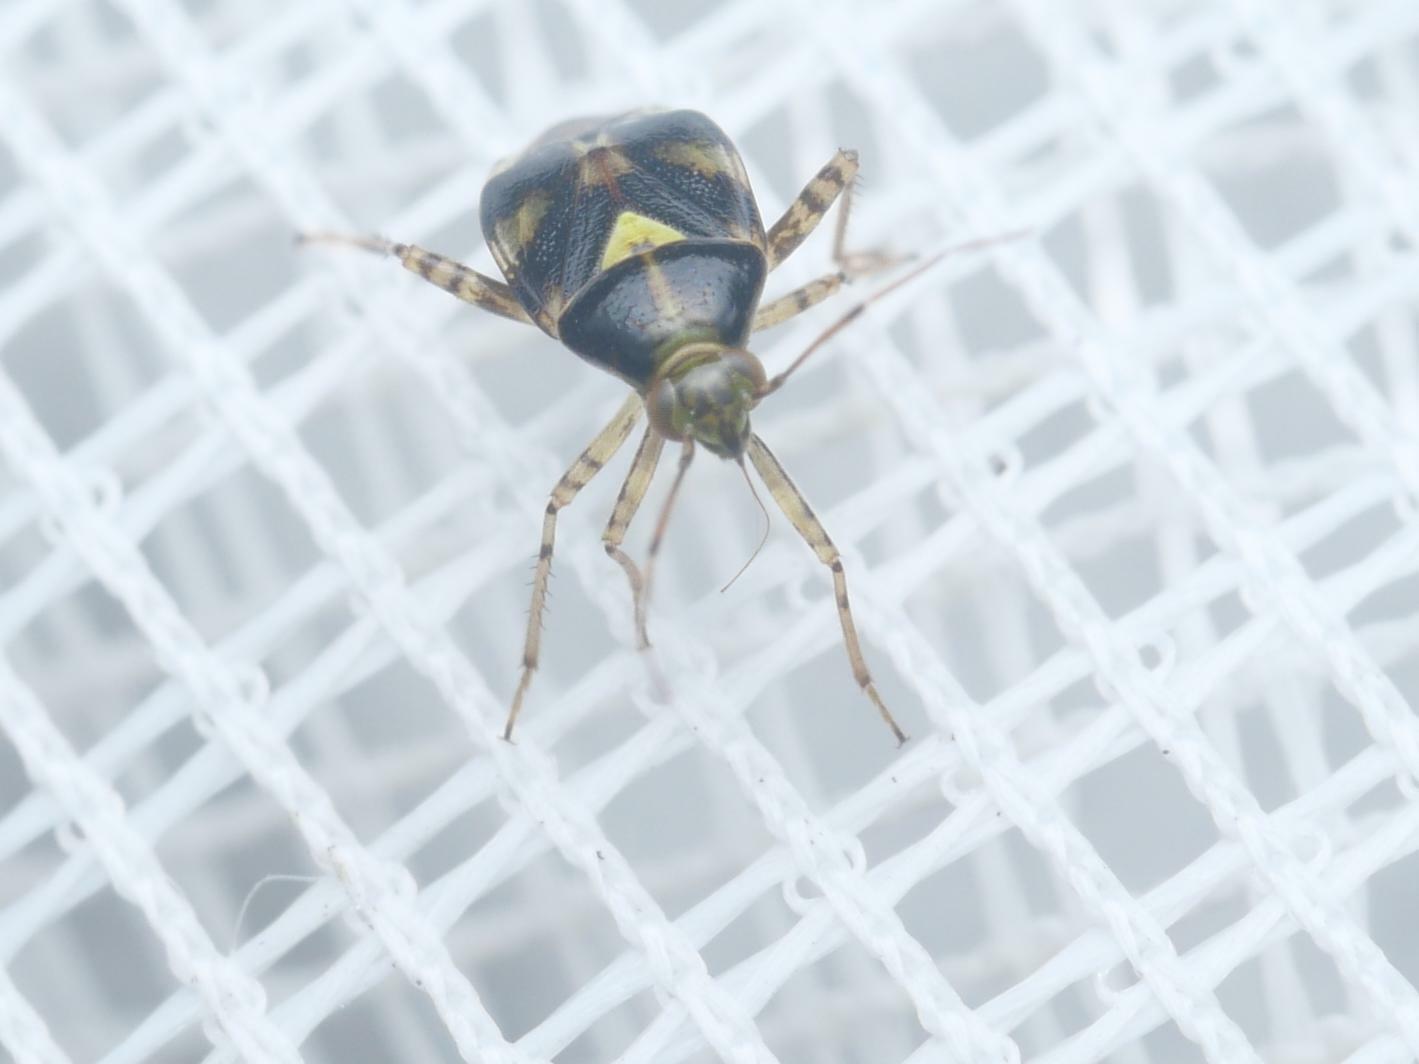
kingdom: Animalia
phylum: Arthropoda
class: Insecta
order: Hemiptera
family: Miridae
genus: Liocoris
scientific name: Liocoris tripustulatus
